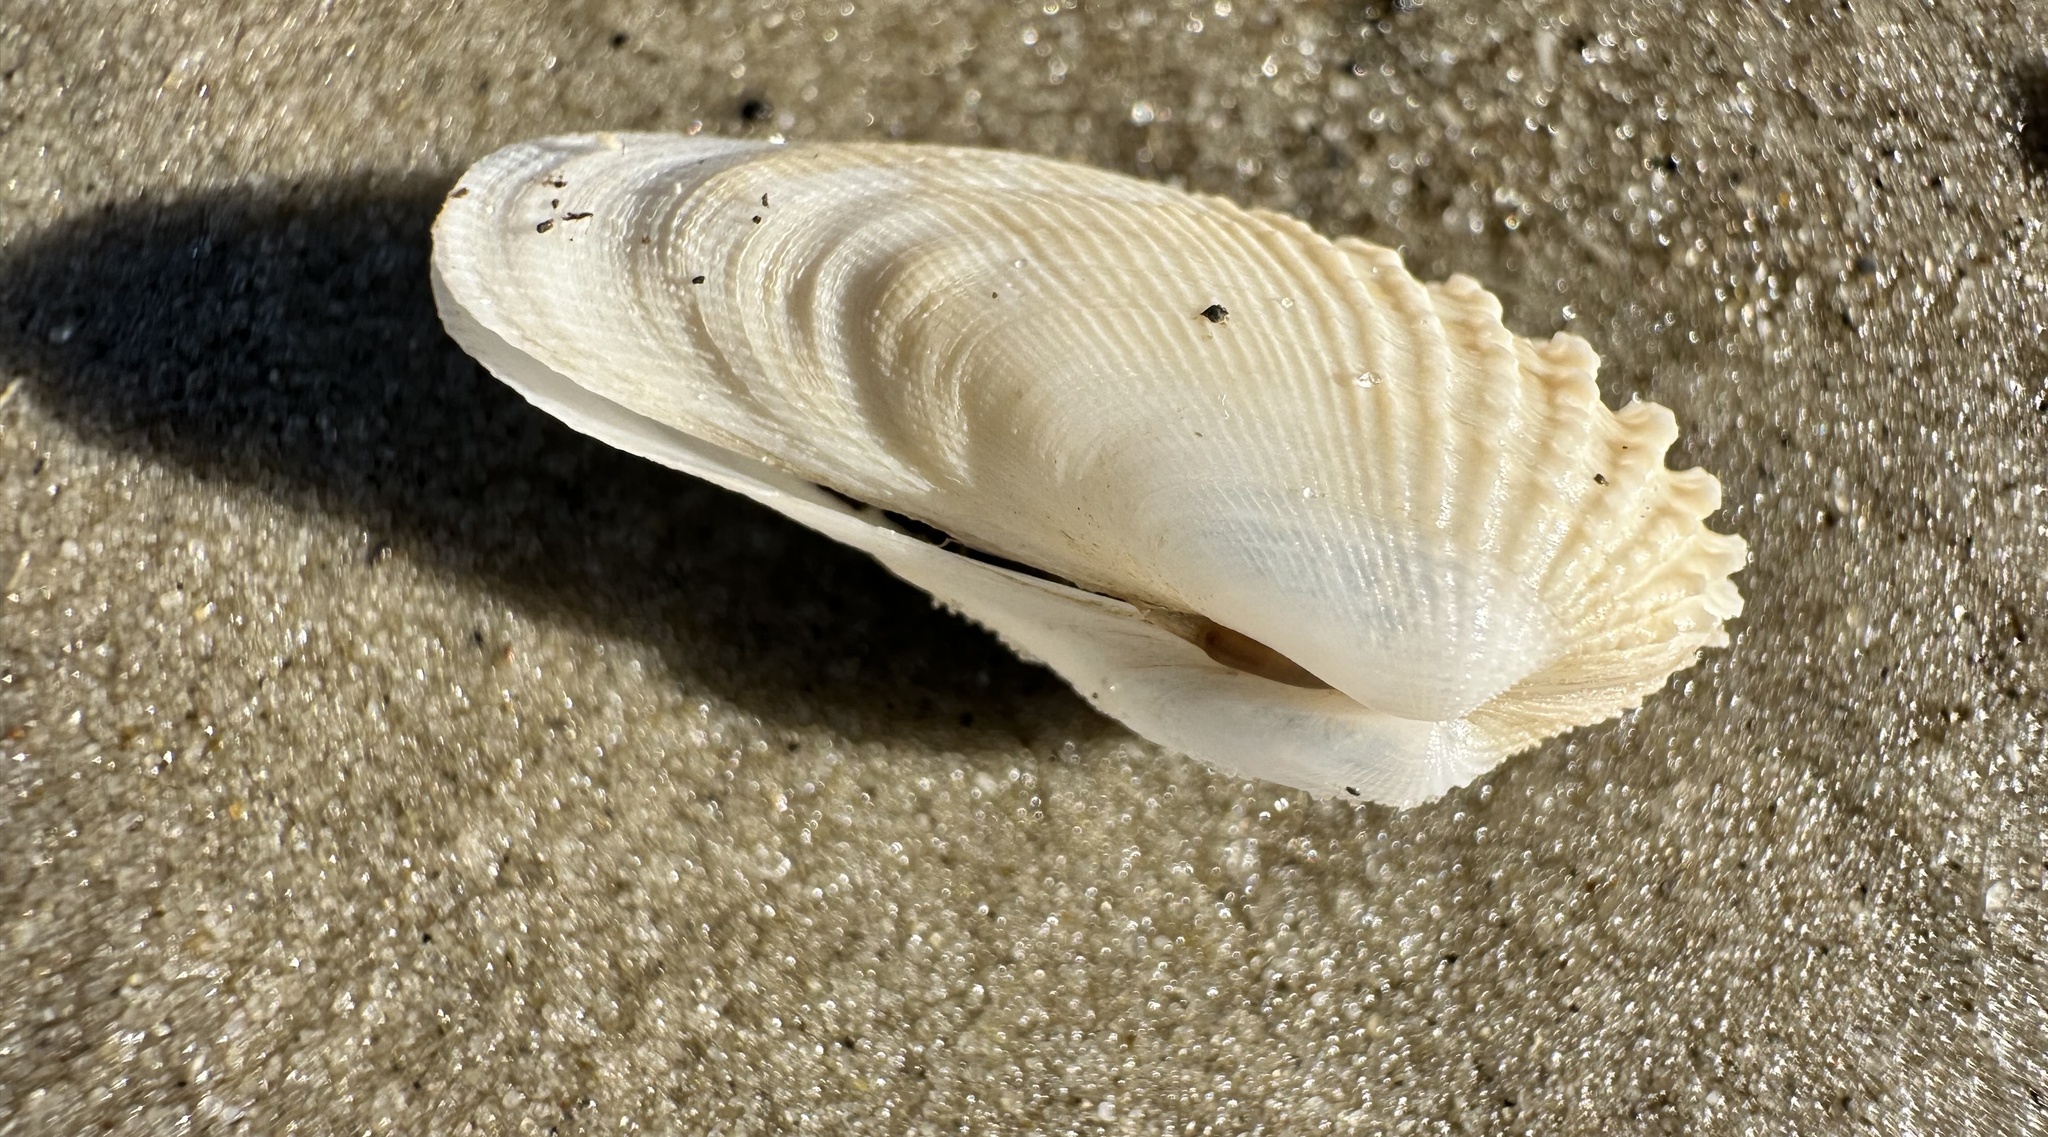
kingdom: Animalia
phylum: Mollusca
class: Bivalvia
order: Venerida
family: Veneridae
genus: Petricolaria
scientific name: Petricolaria pholadiformis
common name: American piddock
